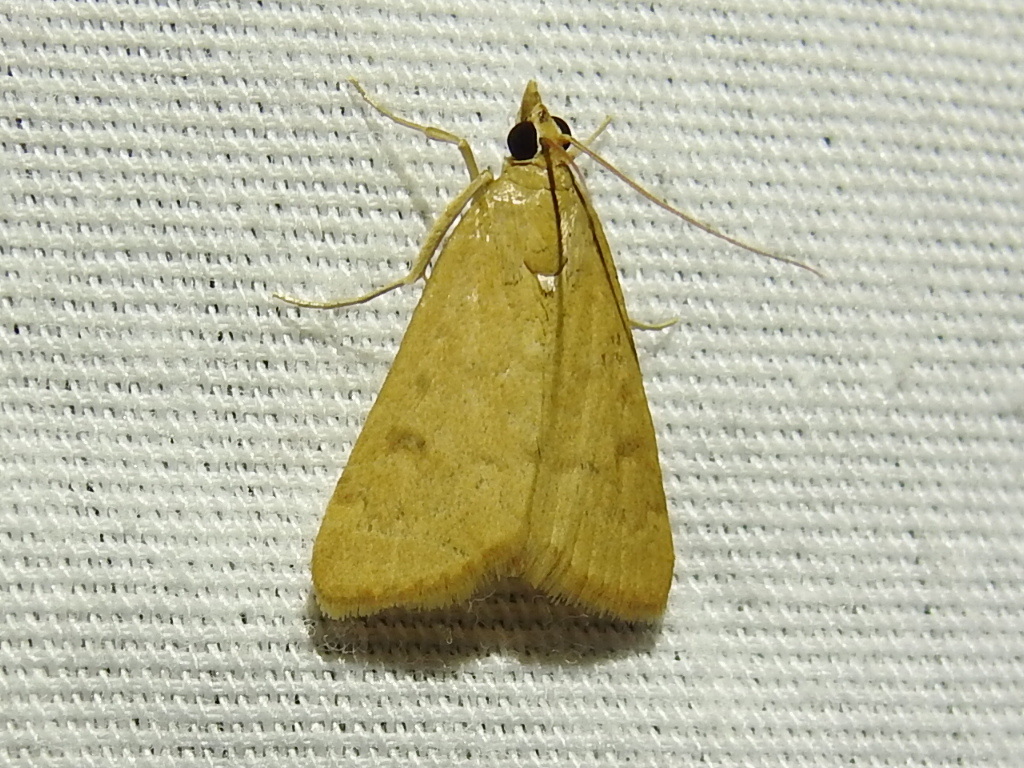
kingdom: Animalia
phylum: Arthropoda
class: Insecta
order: Lepidoptera
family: Crambidae
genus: Achyra
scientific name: Achyra rantalis
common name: Garden webworm
